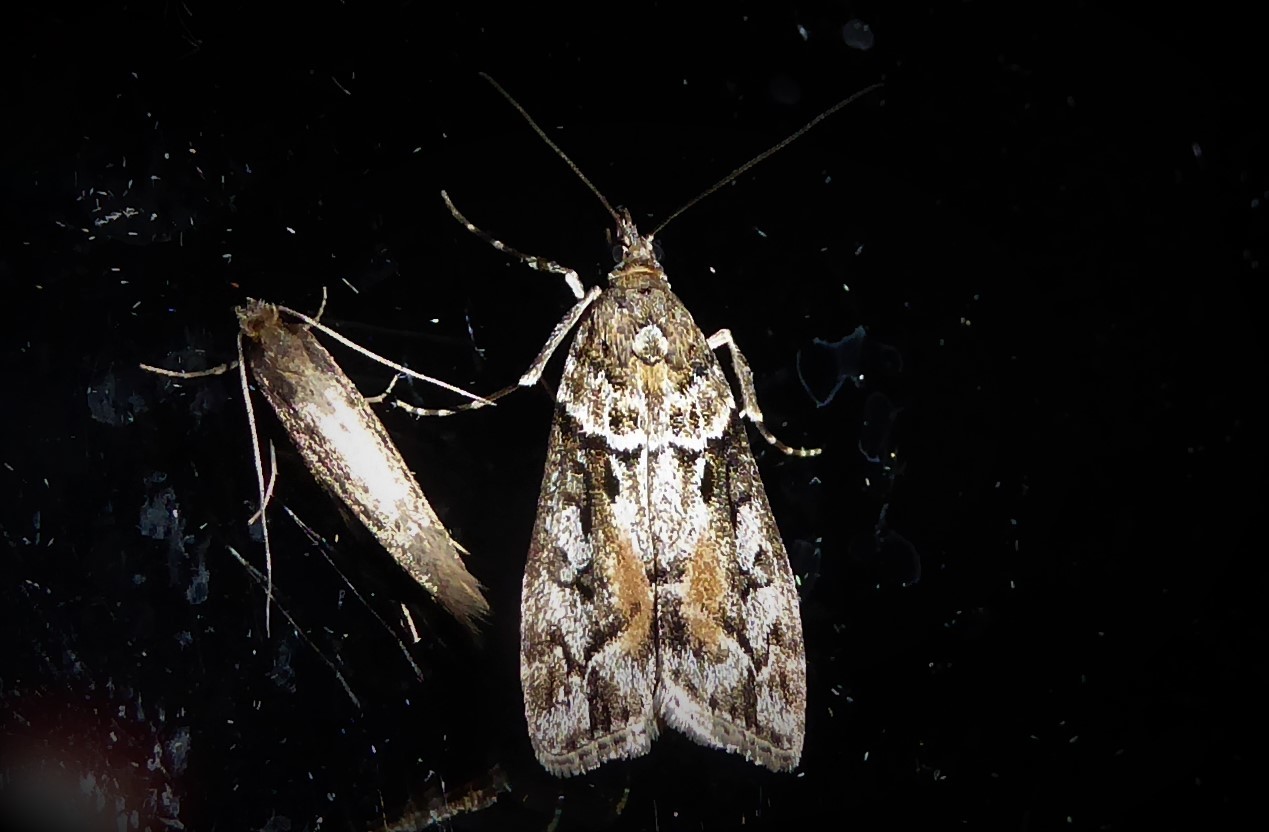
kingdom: Animalia
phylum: Arthropoda
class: Insecta
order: Lepidoptera
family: Crambidae
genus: Eudonia
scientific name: Eudonia submarginalis
